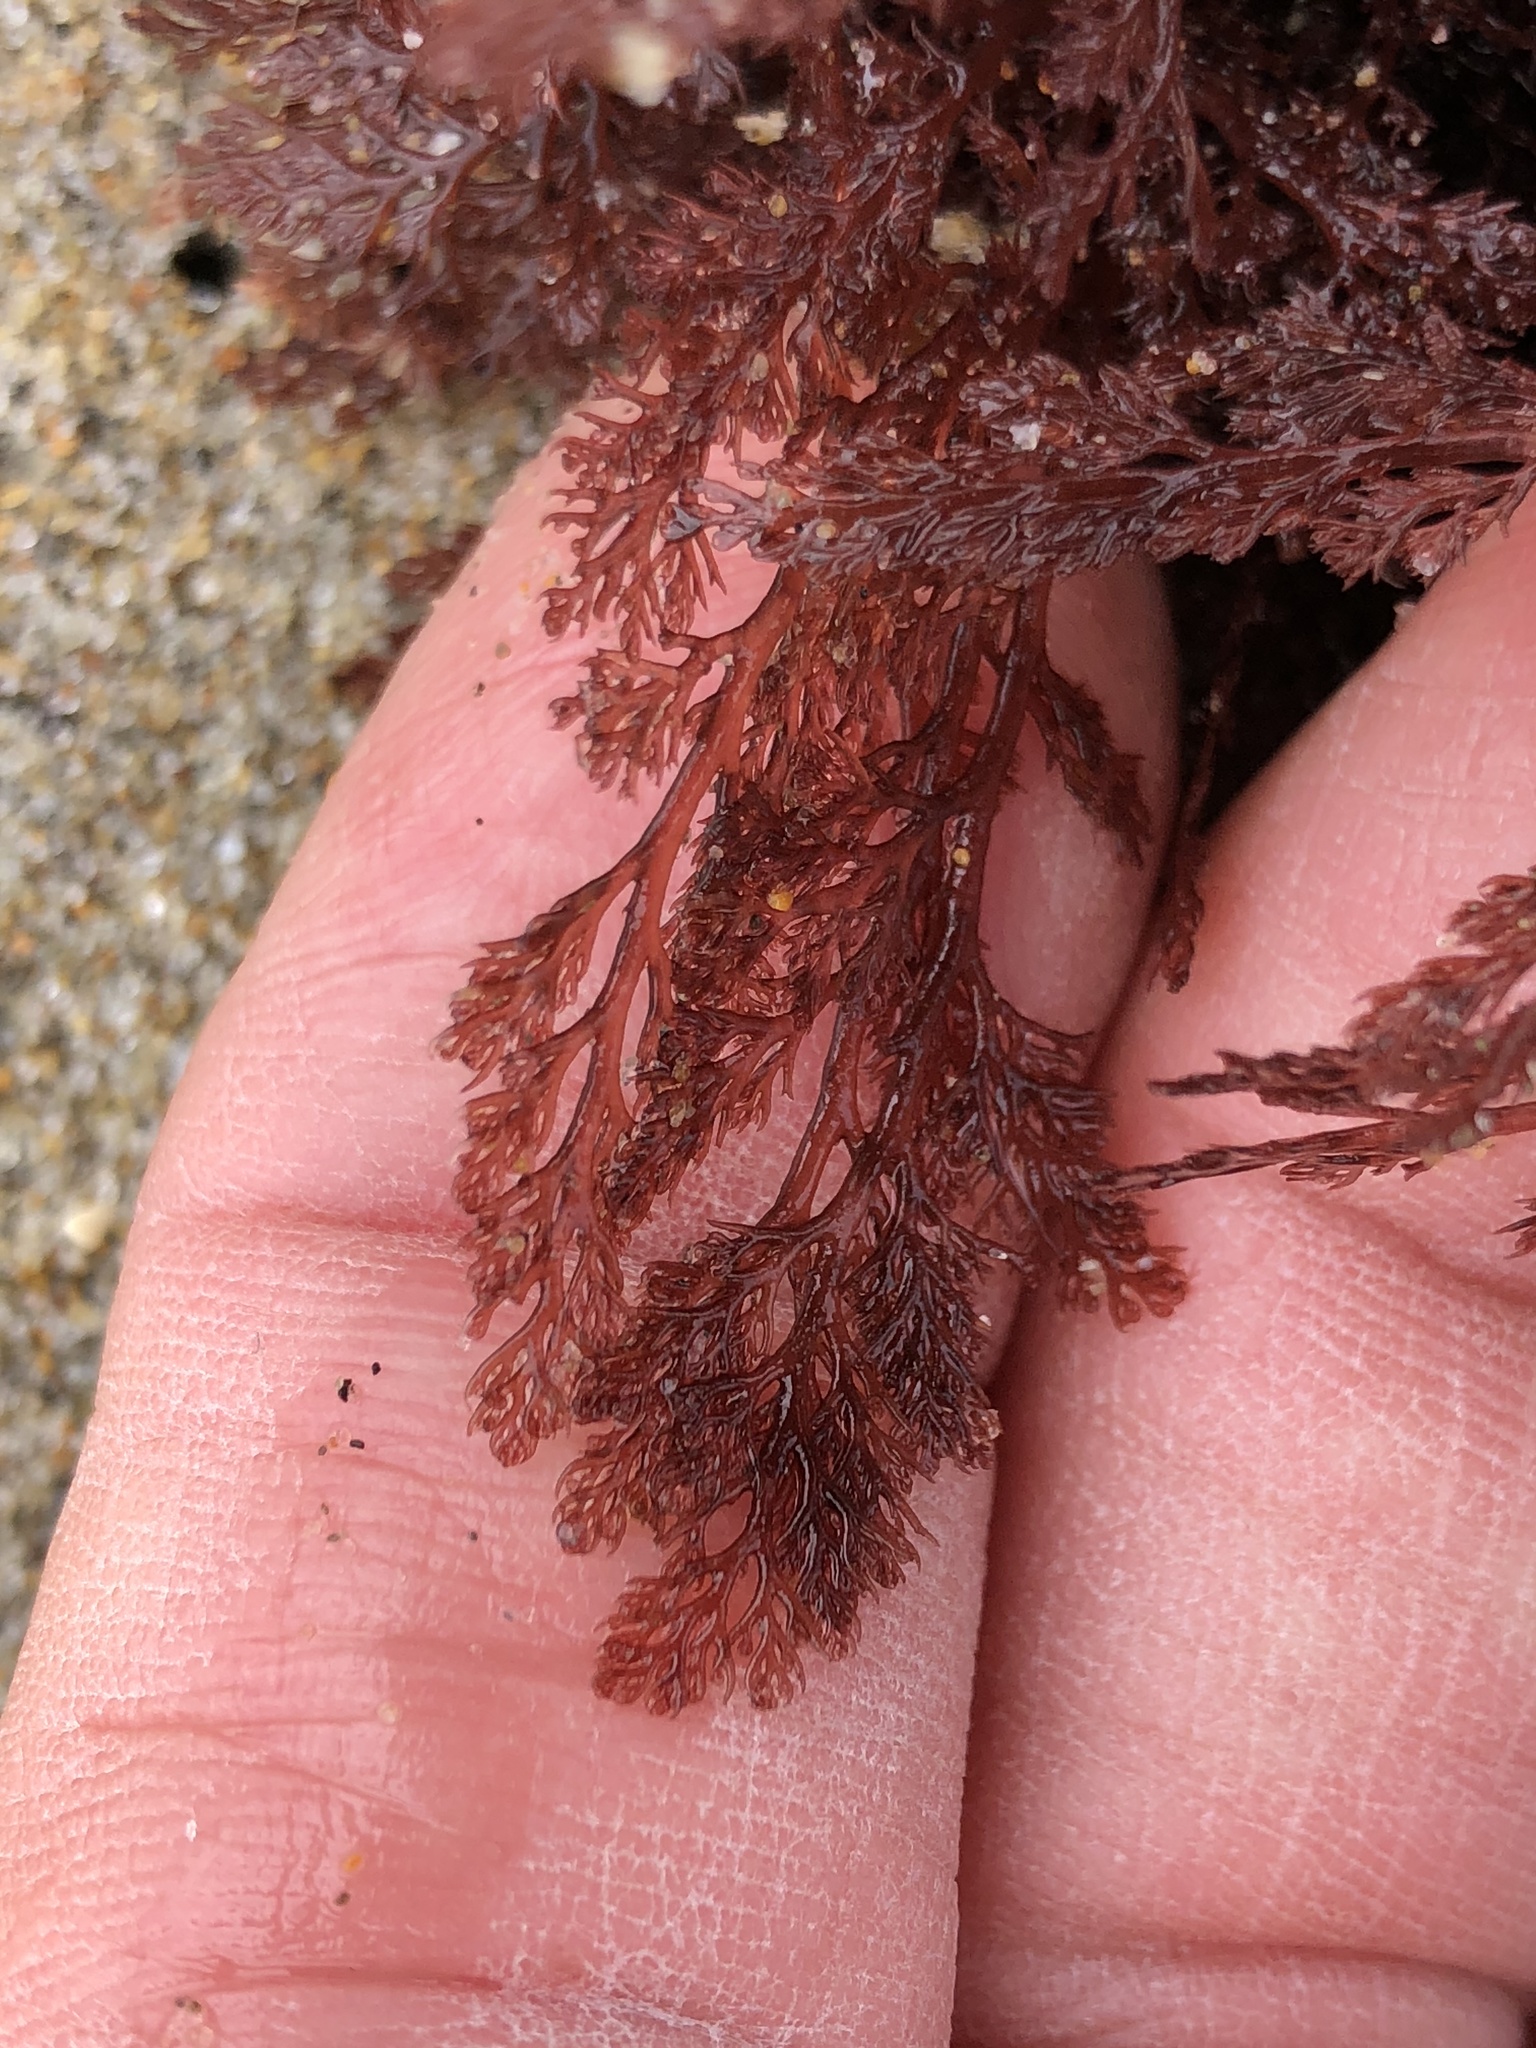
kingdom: Plantae
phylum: Rhodophyta
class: Florideophyceae
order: Ceramiales
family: Ceramiaceae
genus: Microcladia
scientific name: Microcladia coulteri
